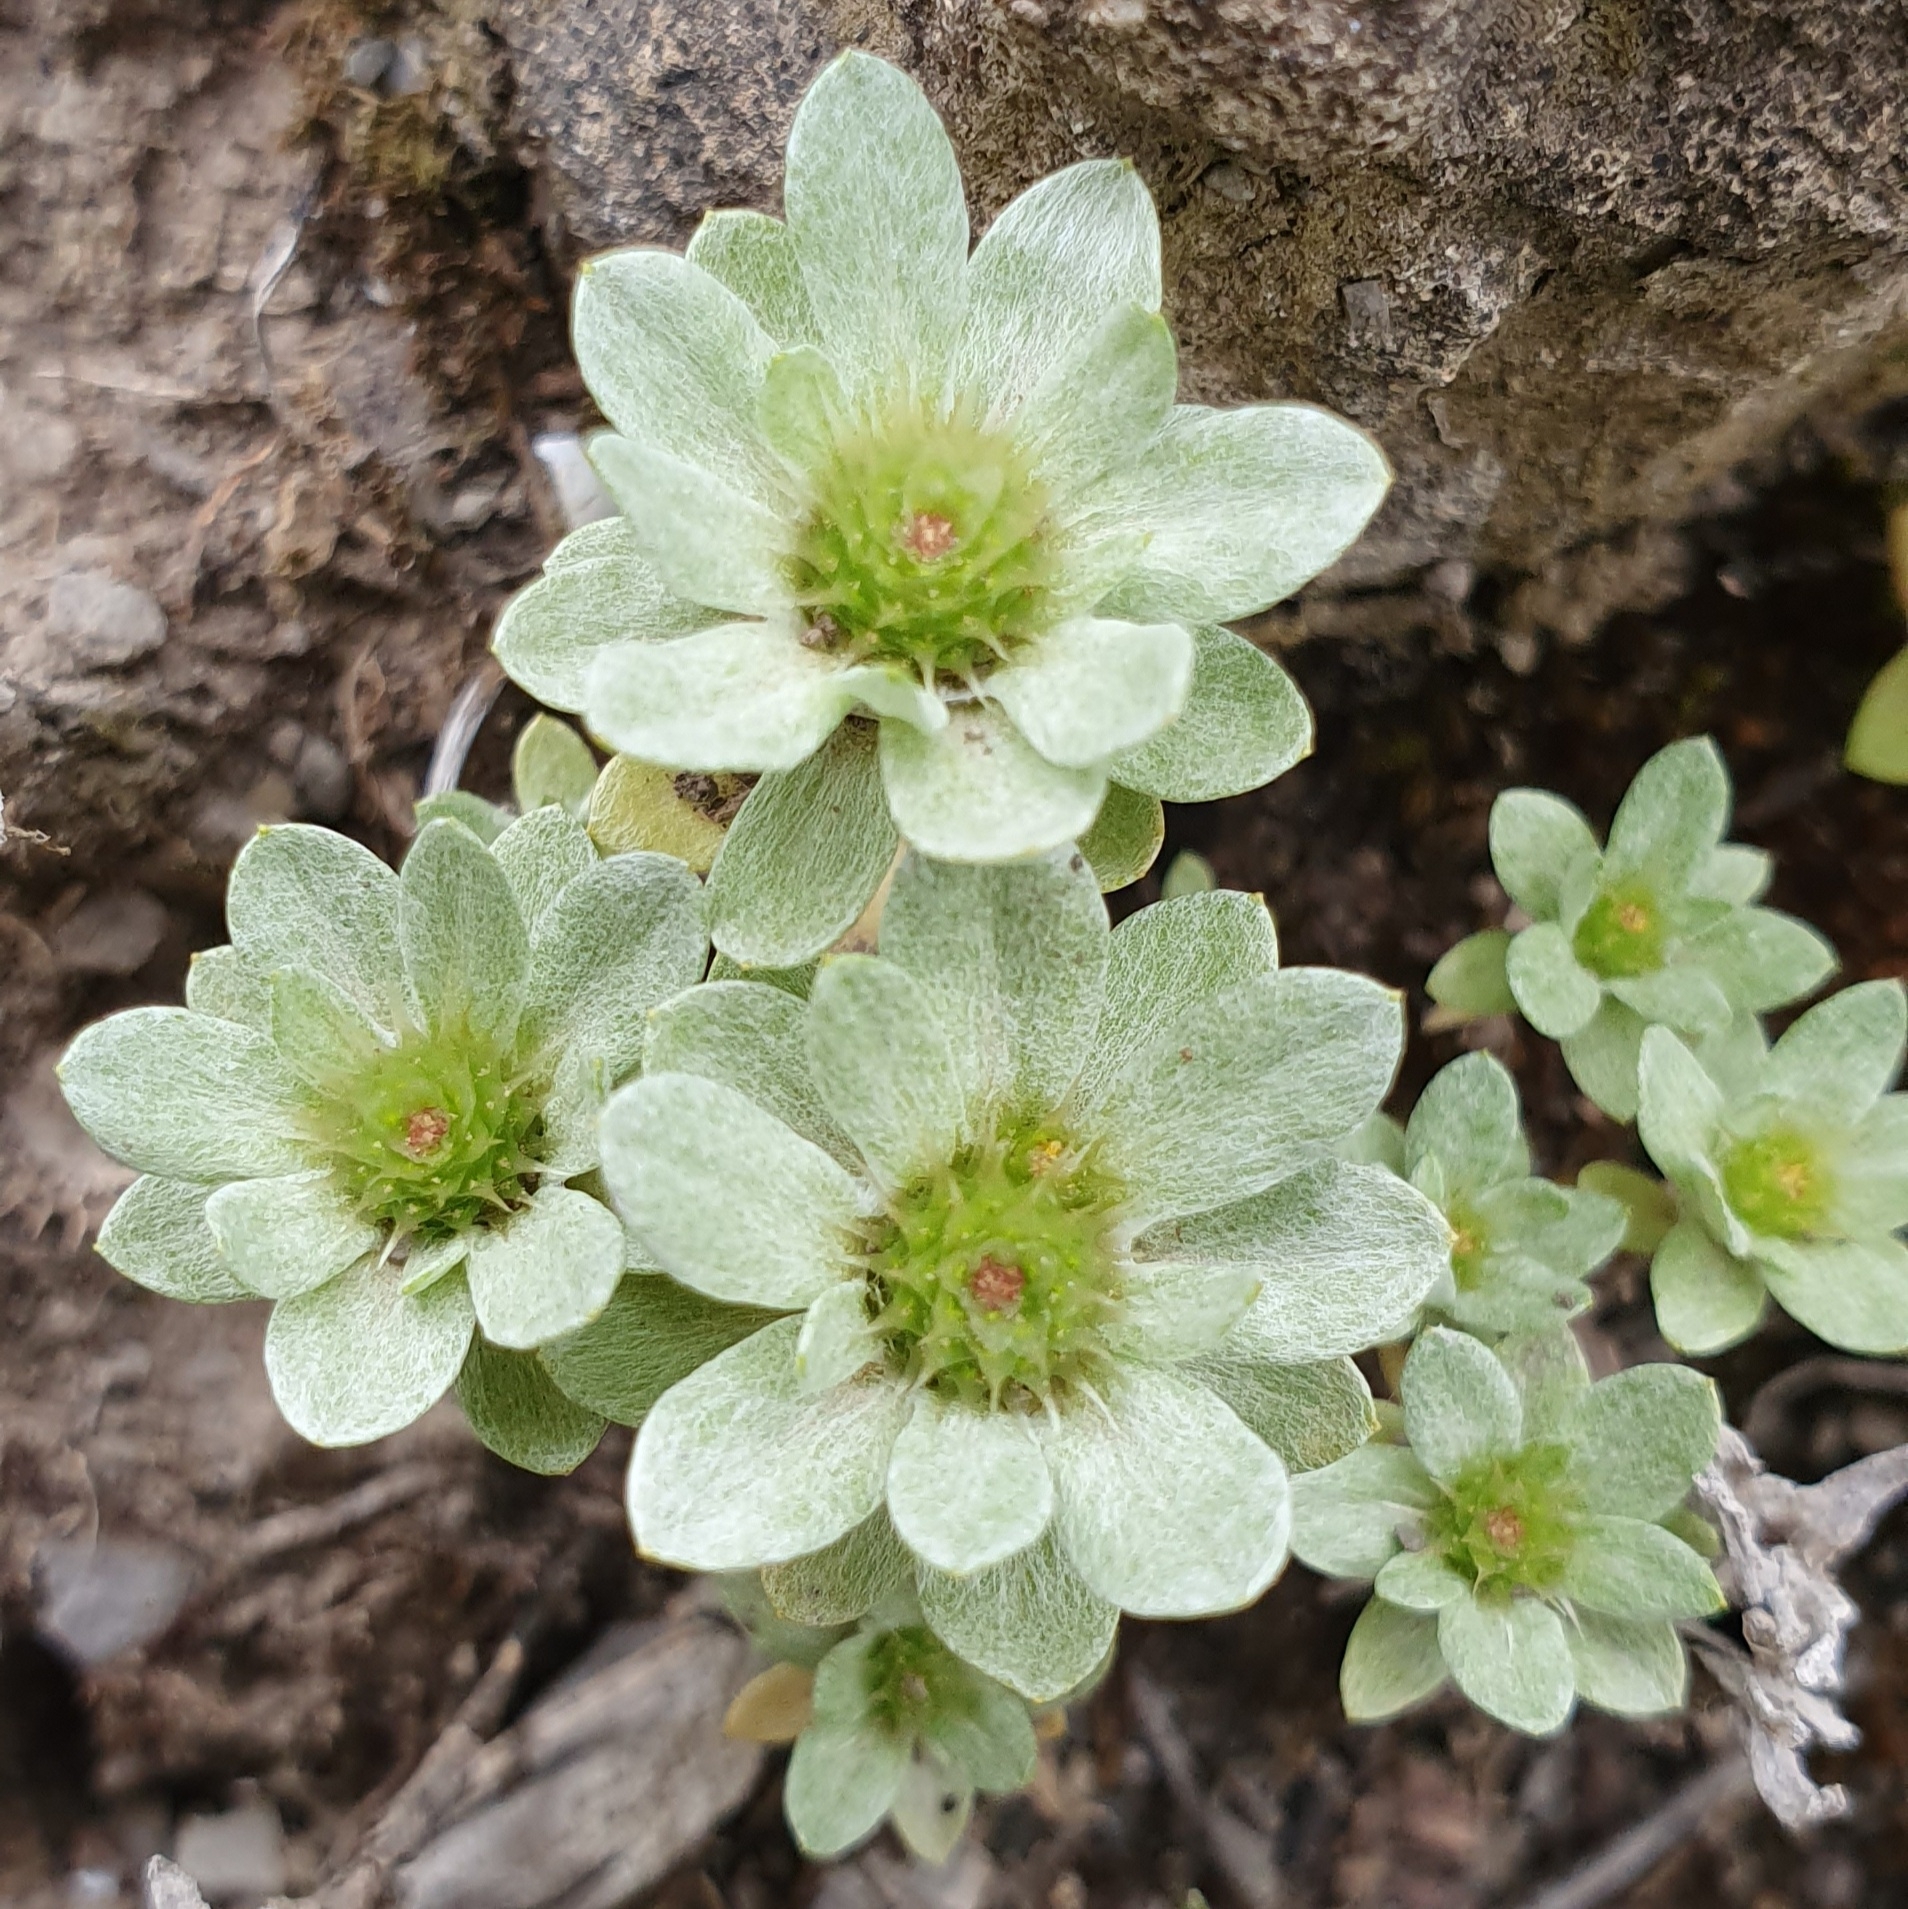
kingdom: Plantae
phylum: Tracheophyta
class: Magnoliopsida
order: Asterales
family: Asteraceae
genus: Filago
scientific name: Filago pygmaea
